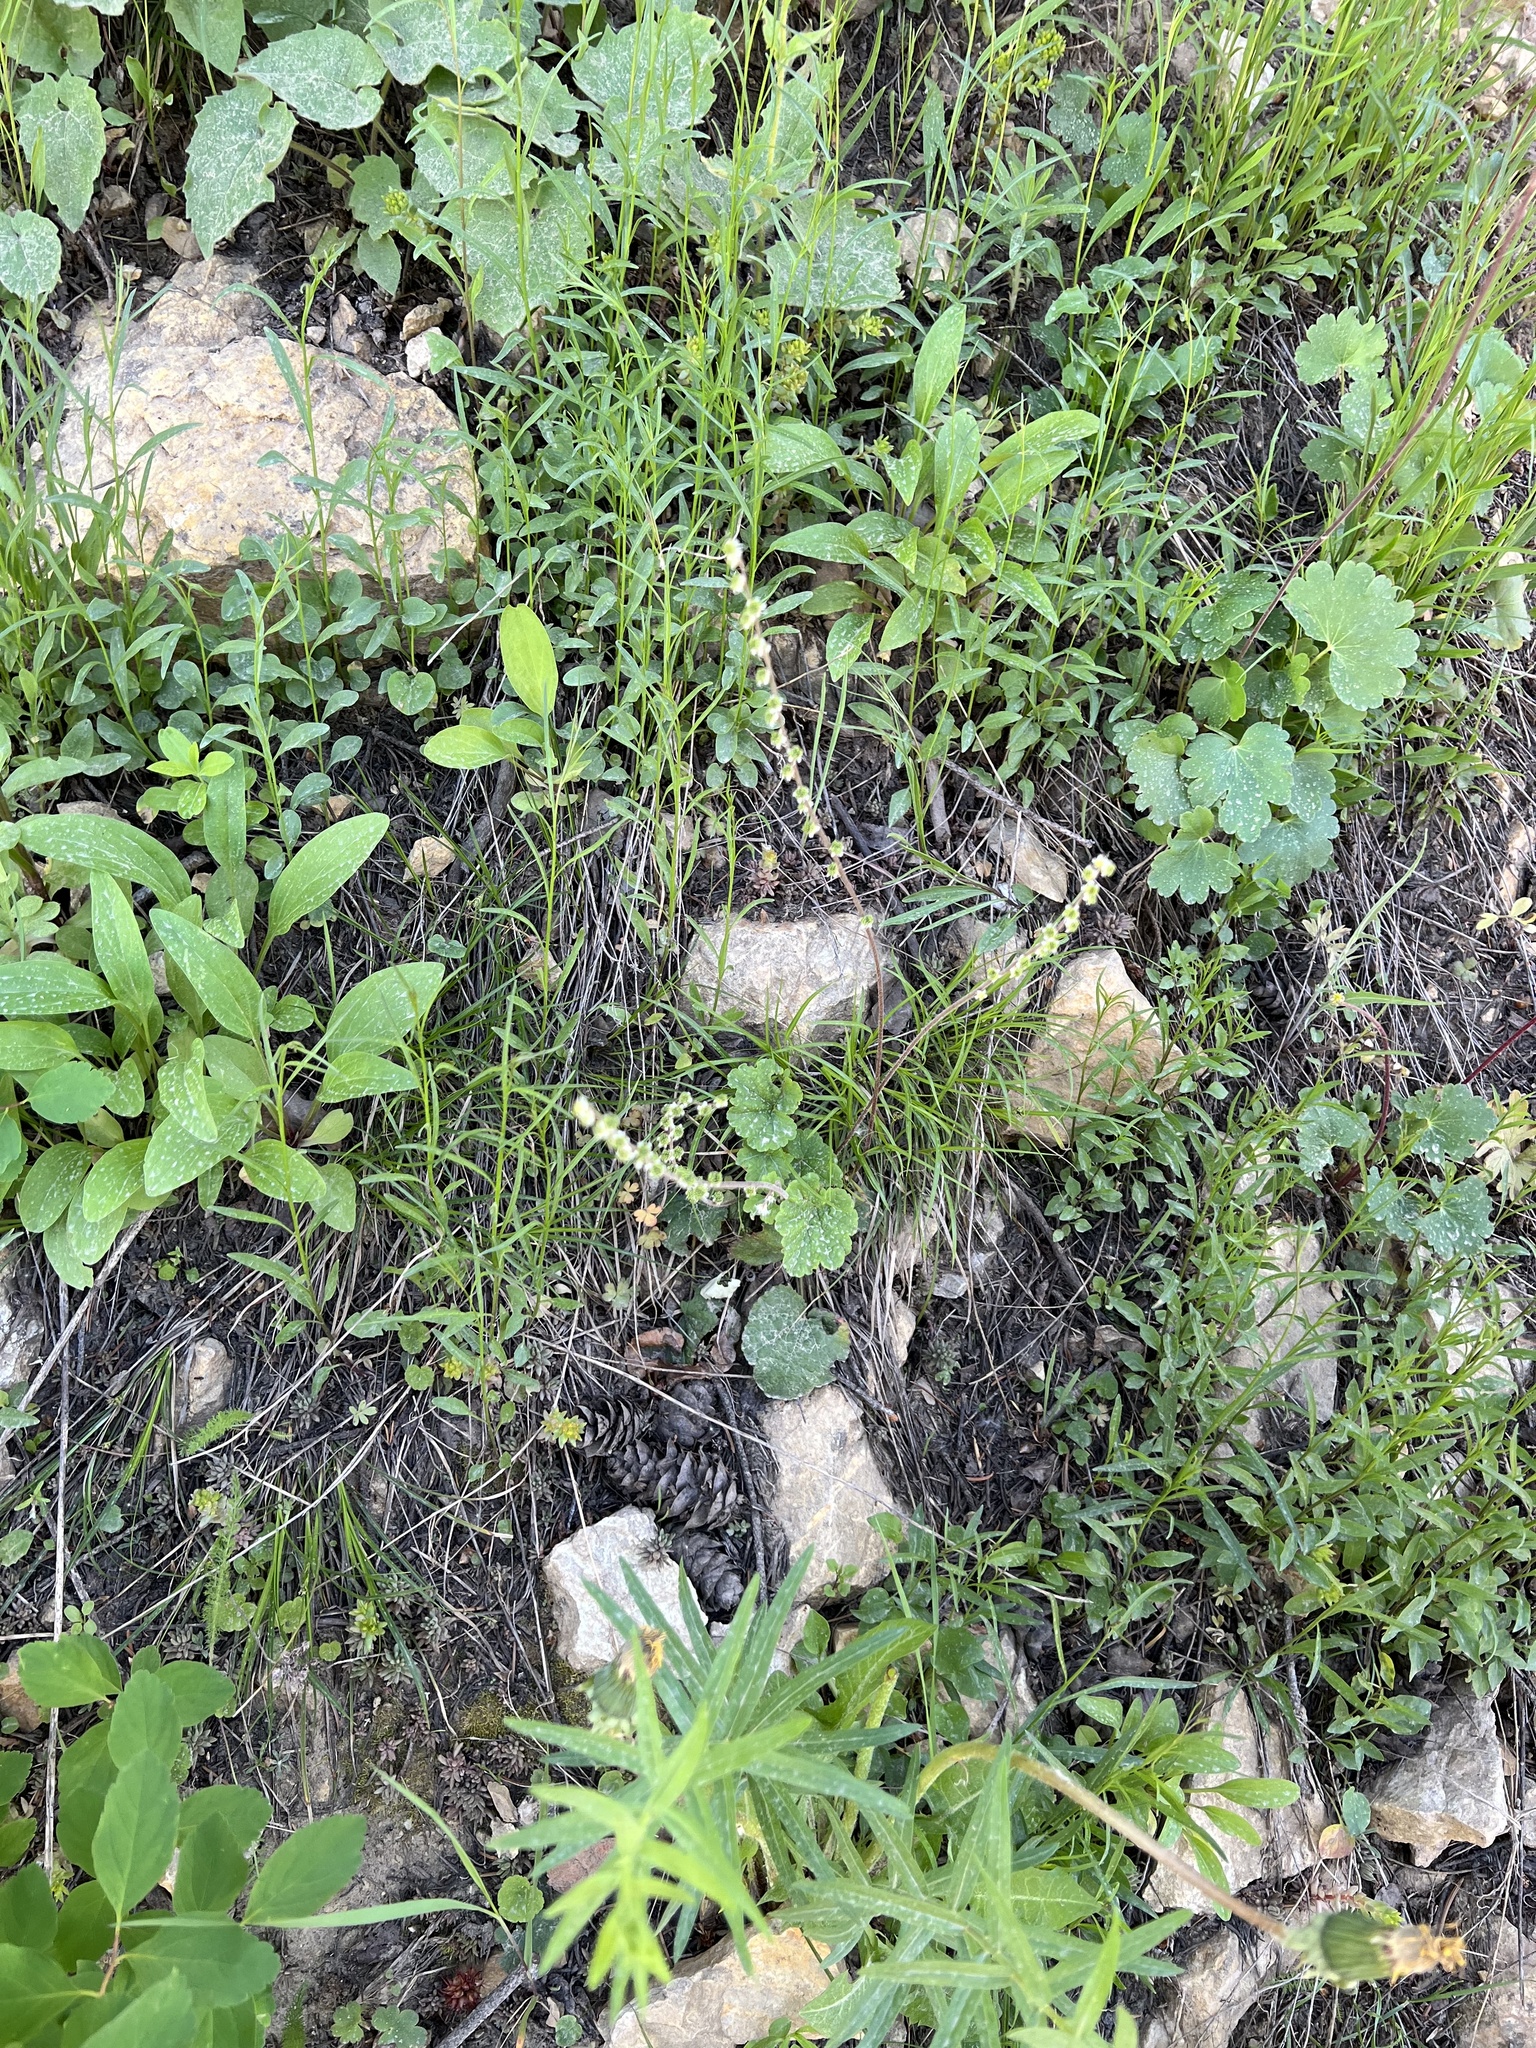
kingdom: Plantae
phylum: Tracheophyta
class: Magnoliopsida
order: Saxifragales
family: Saxifragaceae
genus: Ozomelis
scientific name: Ozomelis stauropetala
